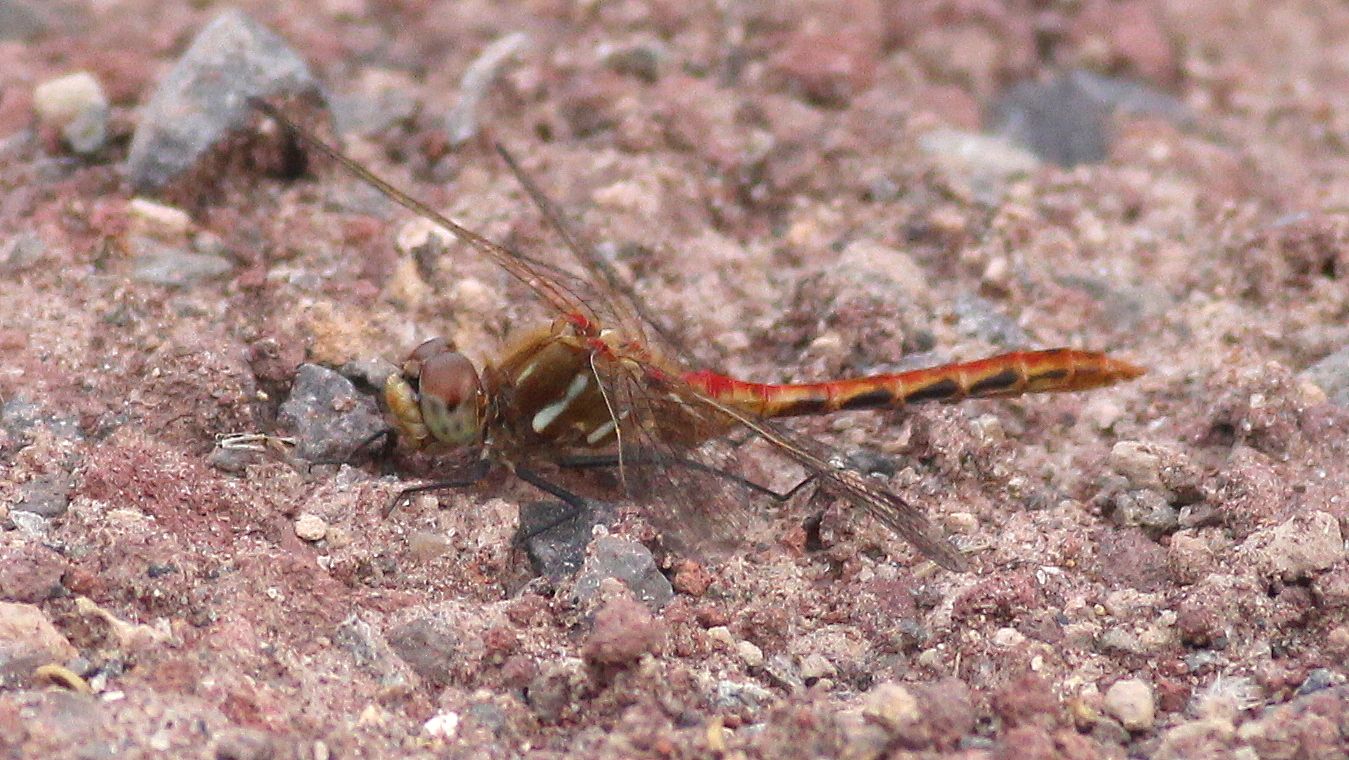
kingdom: Animalia
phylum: Arthropoda
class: Insecta
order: Odonata
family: Libellulidae
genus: Sympetrum
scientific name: Sympetrum pallipes
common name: Striped meadowhawk
